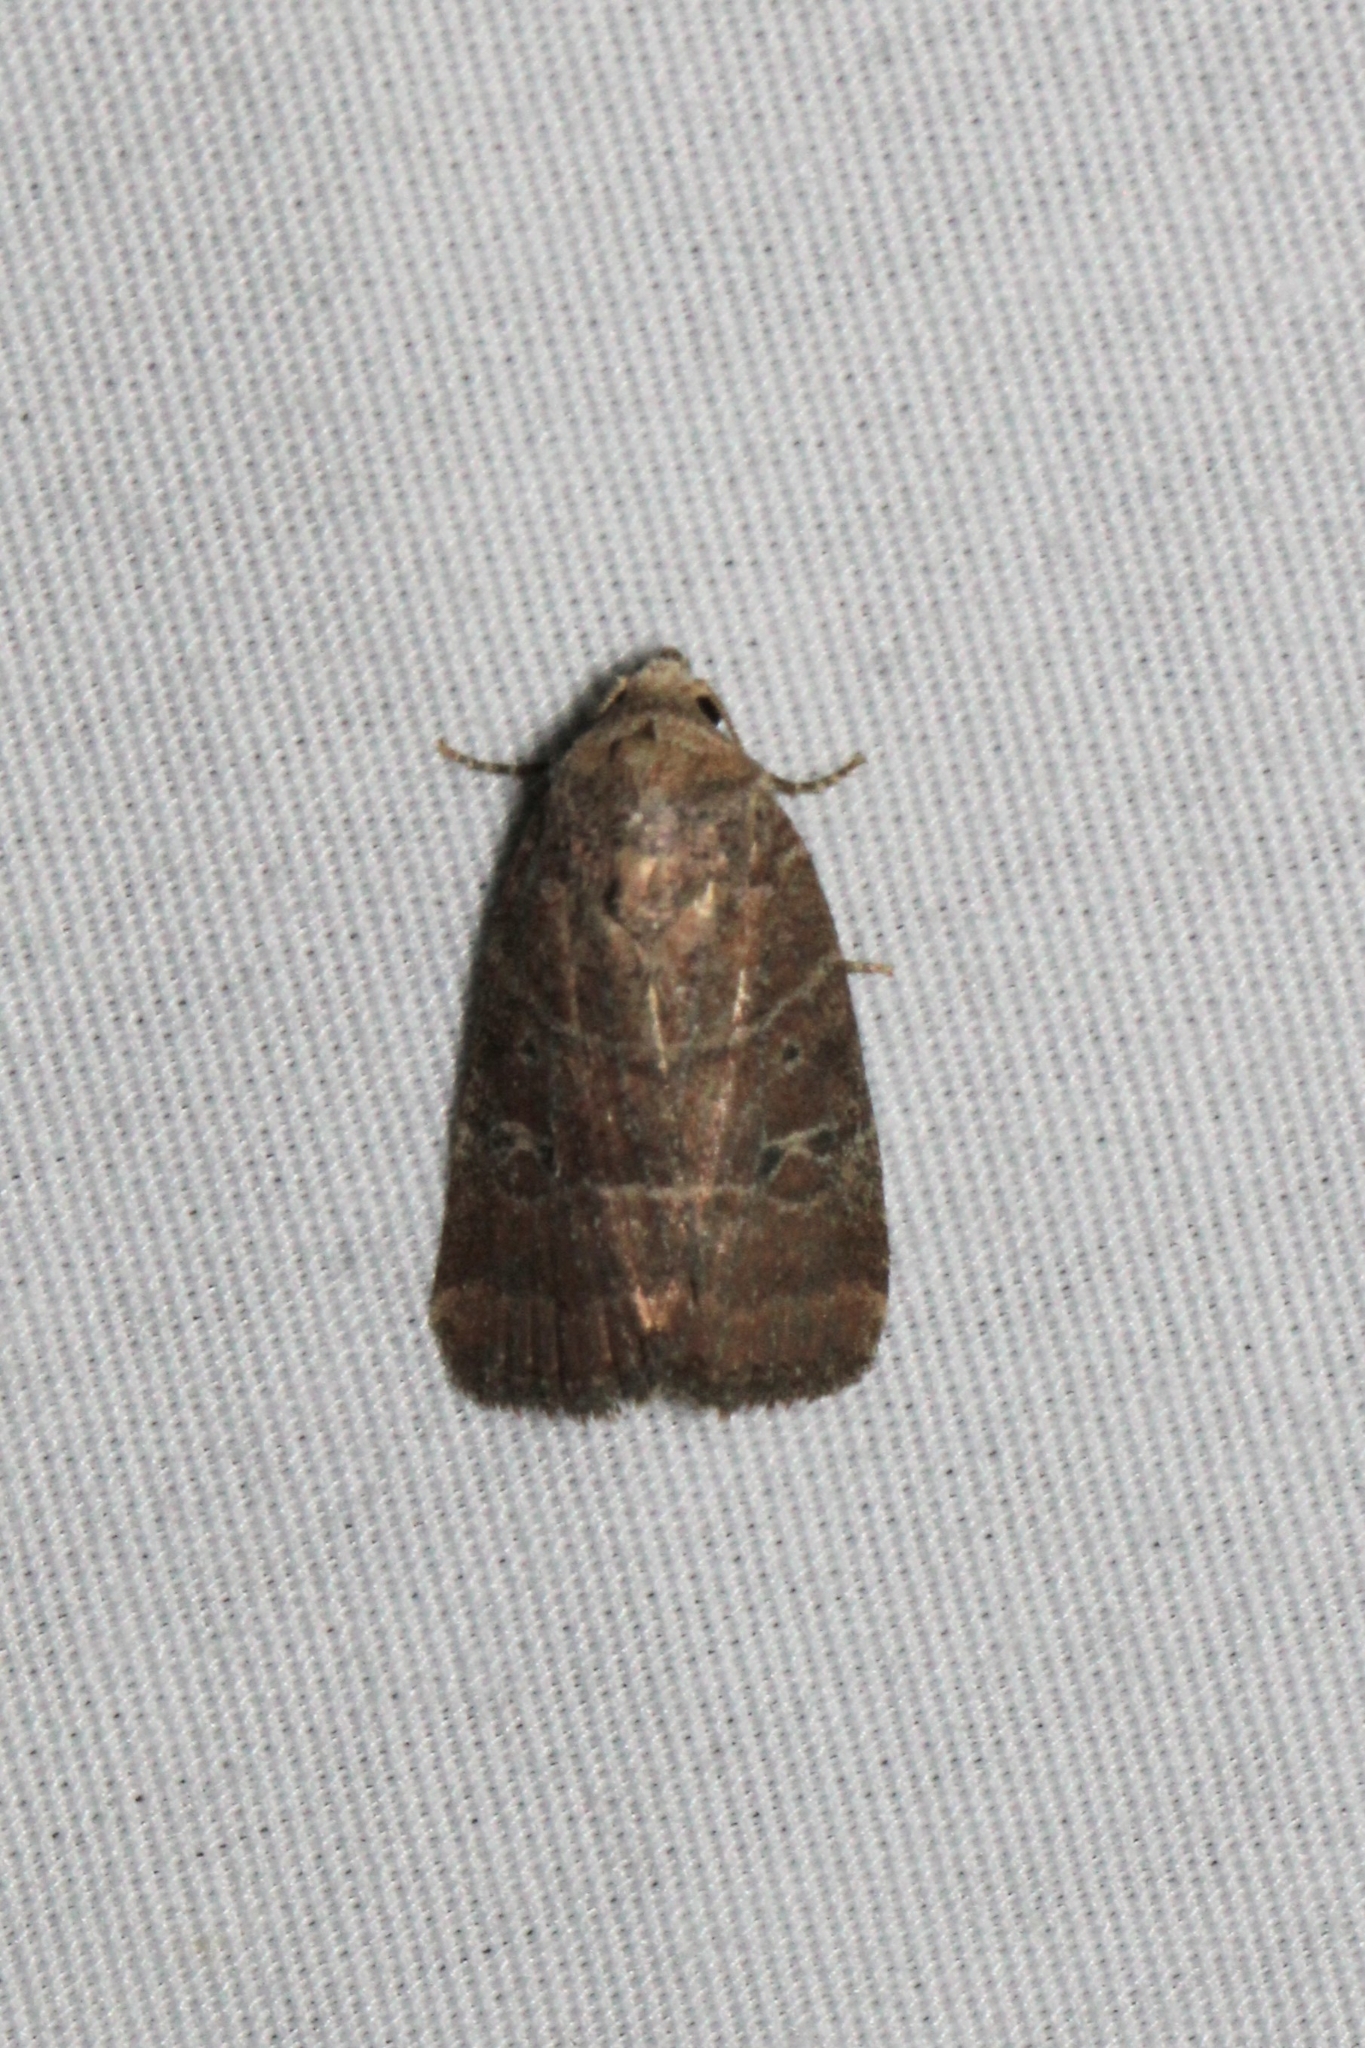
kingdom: Animalia
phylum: Arthropoda
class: Insecta
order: Lepidoptera
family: Noctuidae
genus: Elaphria
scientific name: Elaphria grata
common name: Grateful midget moth
